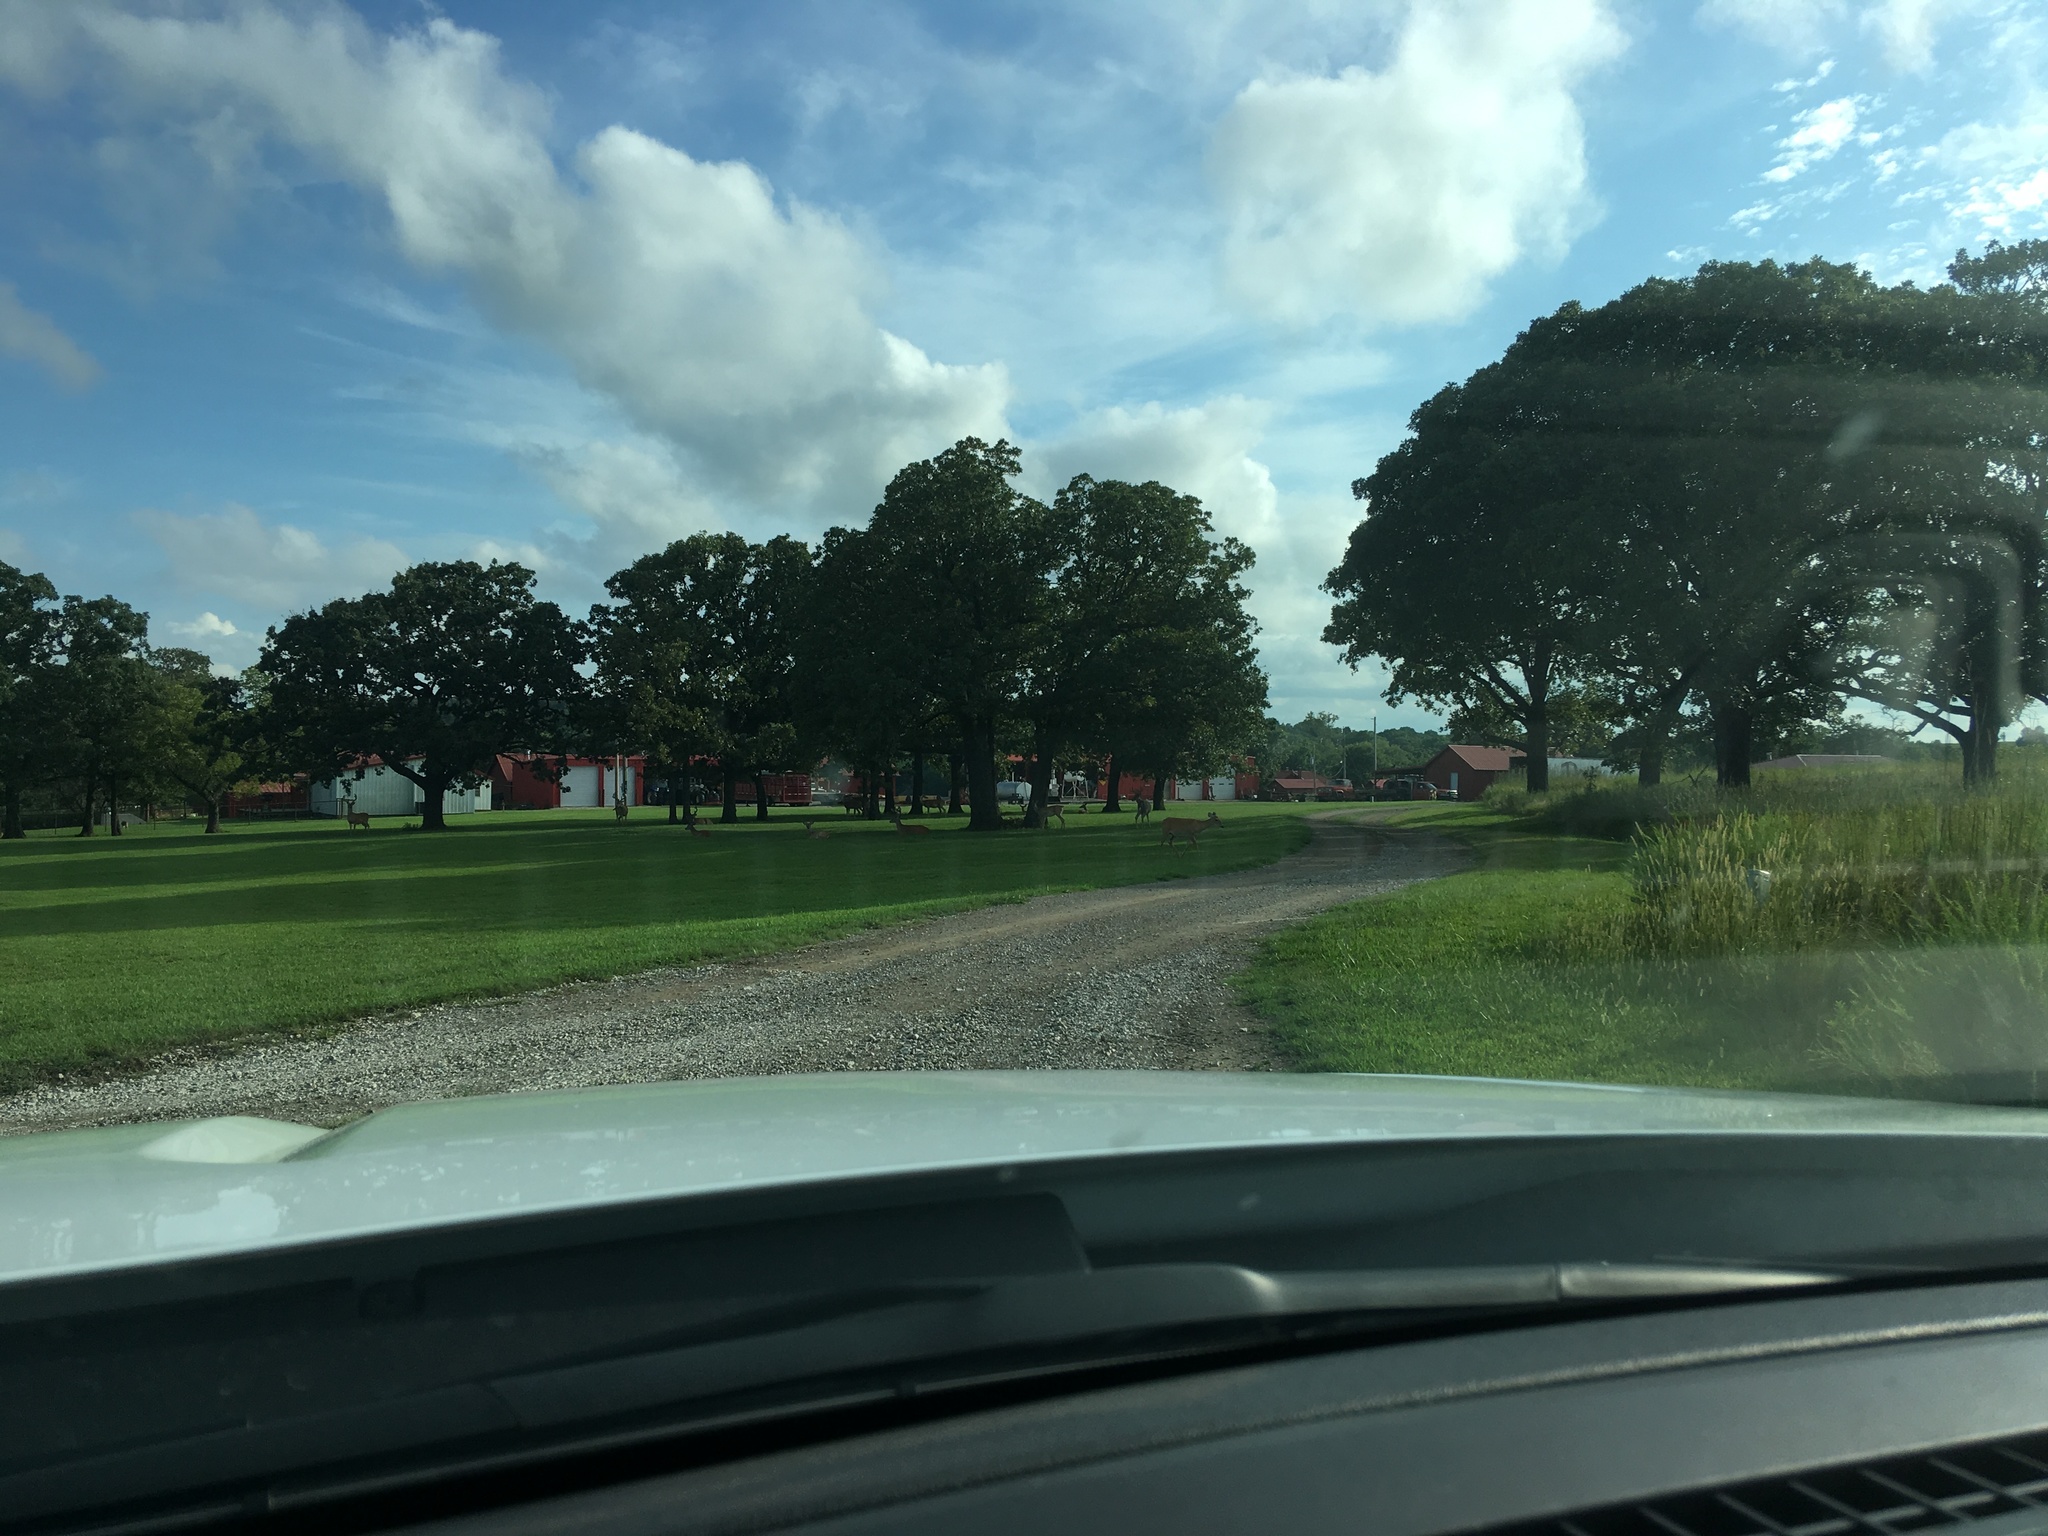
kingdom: Animalia
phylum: Chordata
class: Mammalia
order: Artiodactyla
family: Cervidae
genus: Odocoileus
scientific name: Odocoileus virginianus
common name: White-tailed deer
